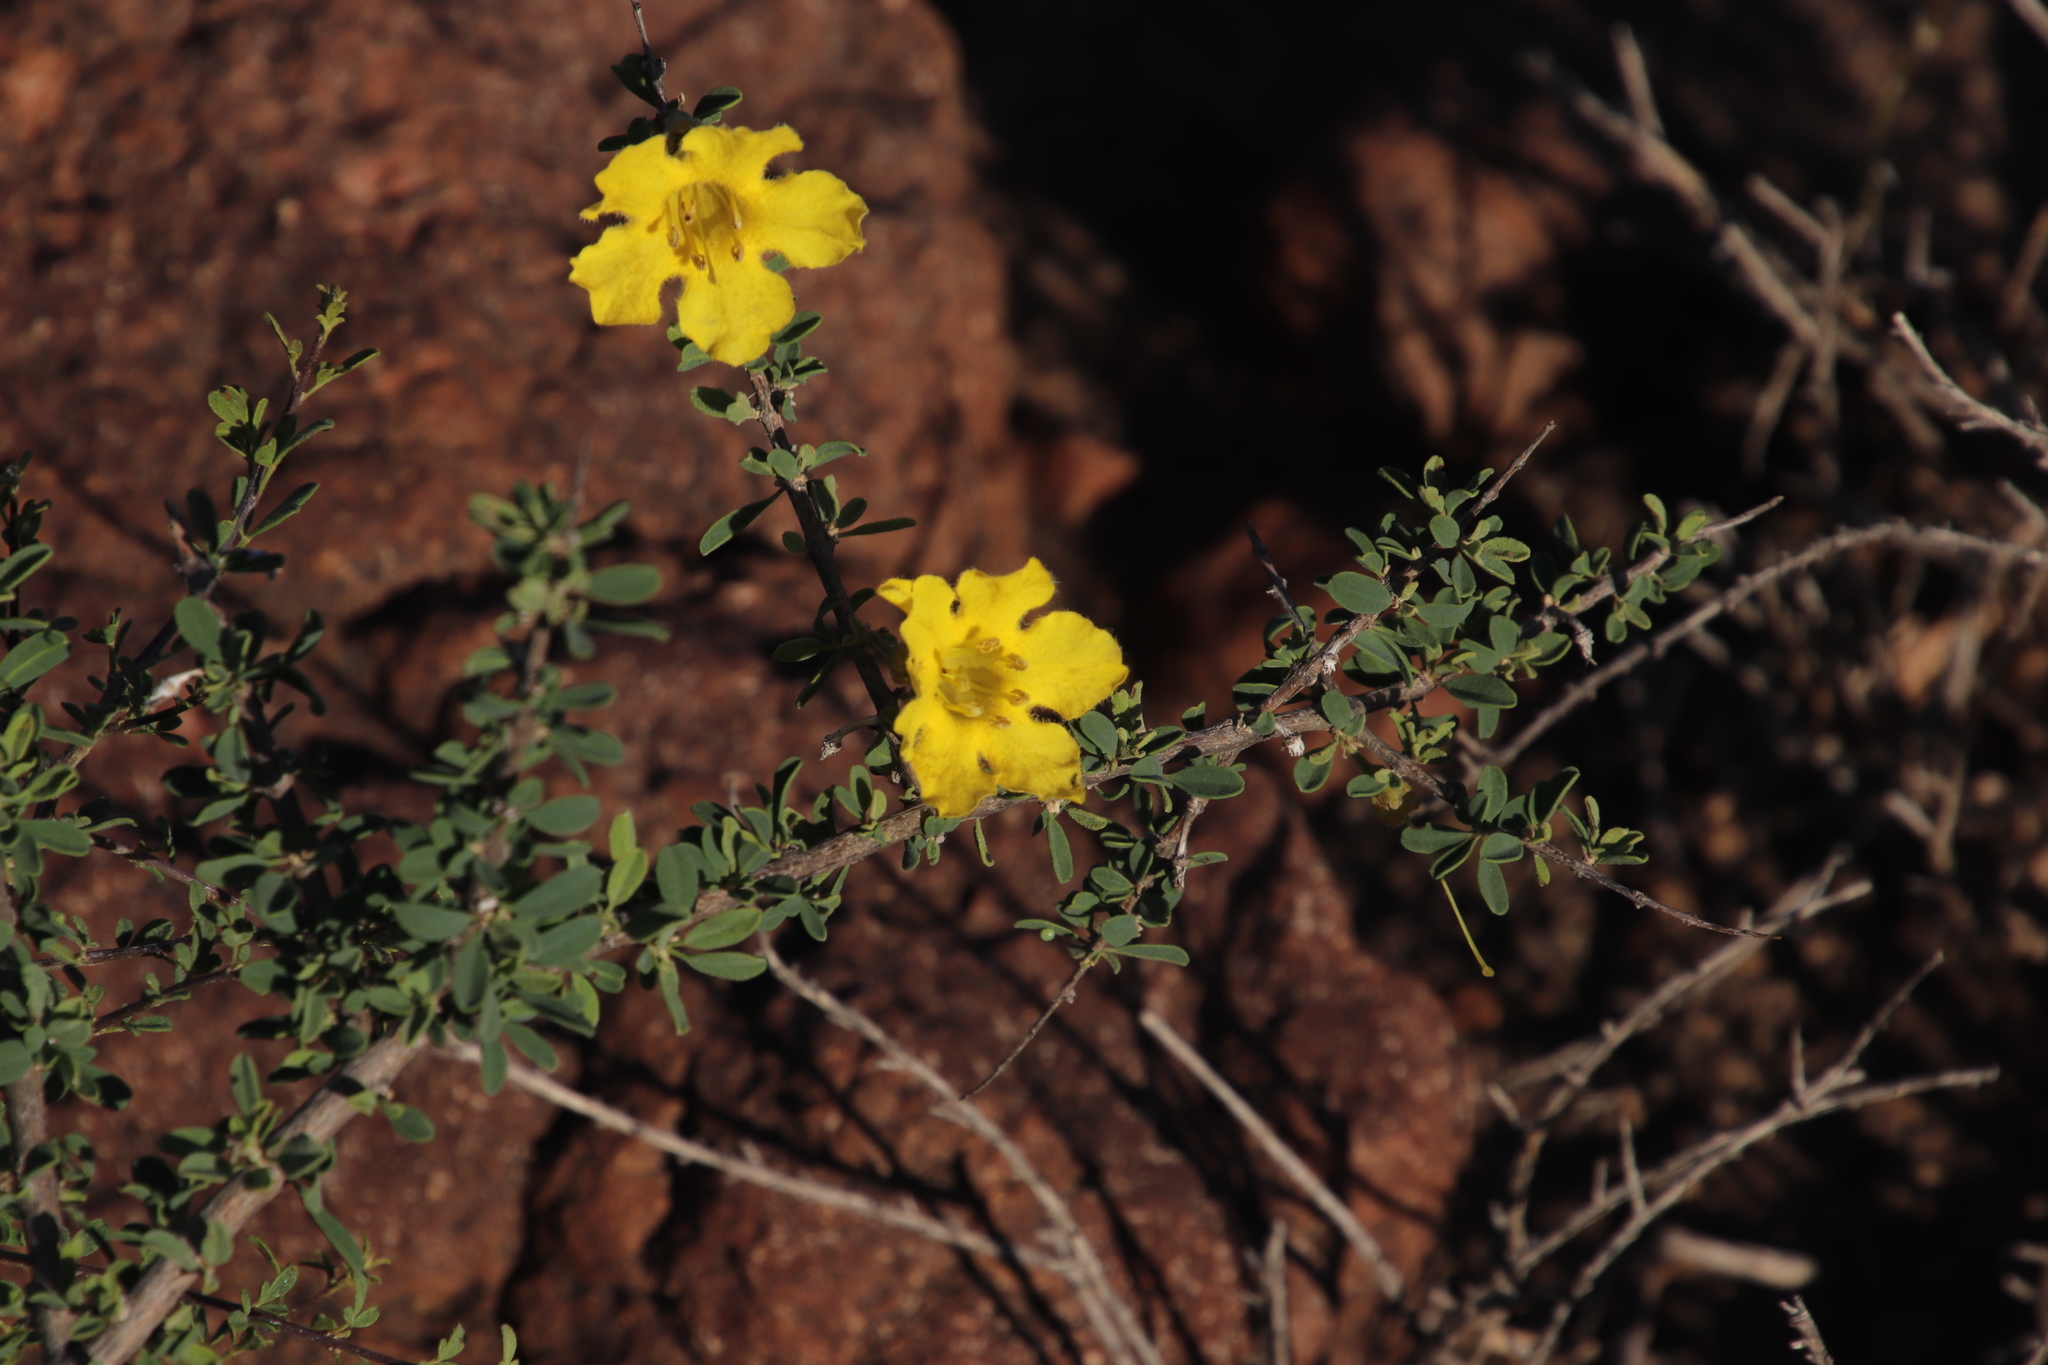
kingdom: Plantae
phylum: Tracheophyta
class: Magnoliopsida
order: Lamiales
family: Bignoniaceae
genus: Rhigozum
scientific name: Rhigozum obovatum
